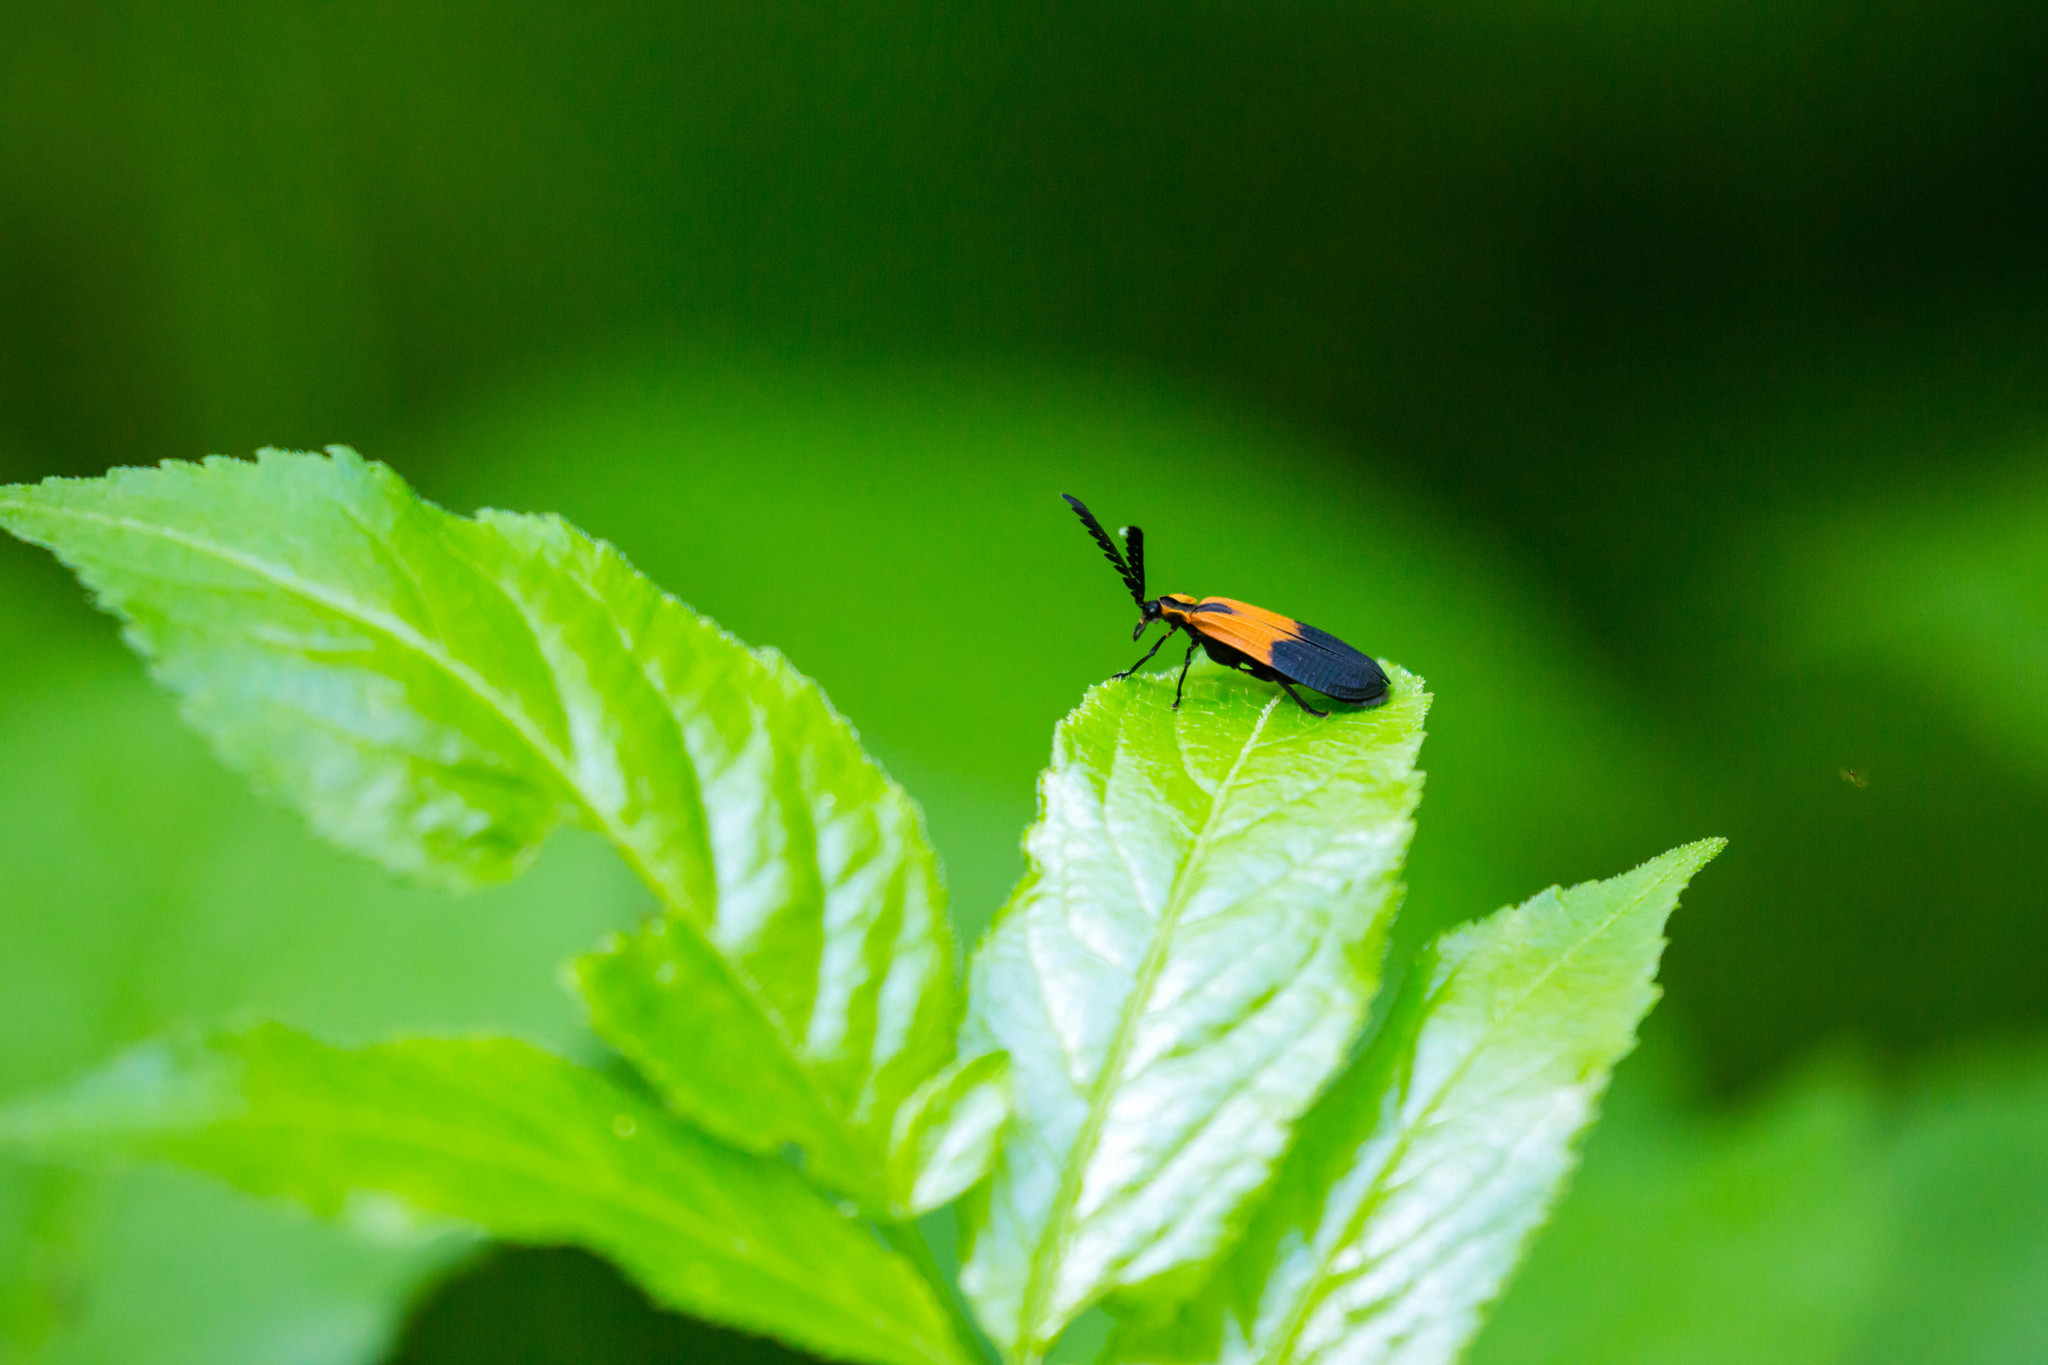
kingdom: Animalia
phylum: Arthropoda
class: Insecta
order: Coleoptera
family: Lycidae
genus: Caenia
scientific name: Caenia dimidiata
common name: Terminal net-winged beetle
